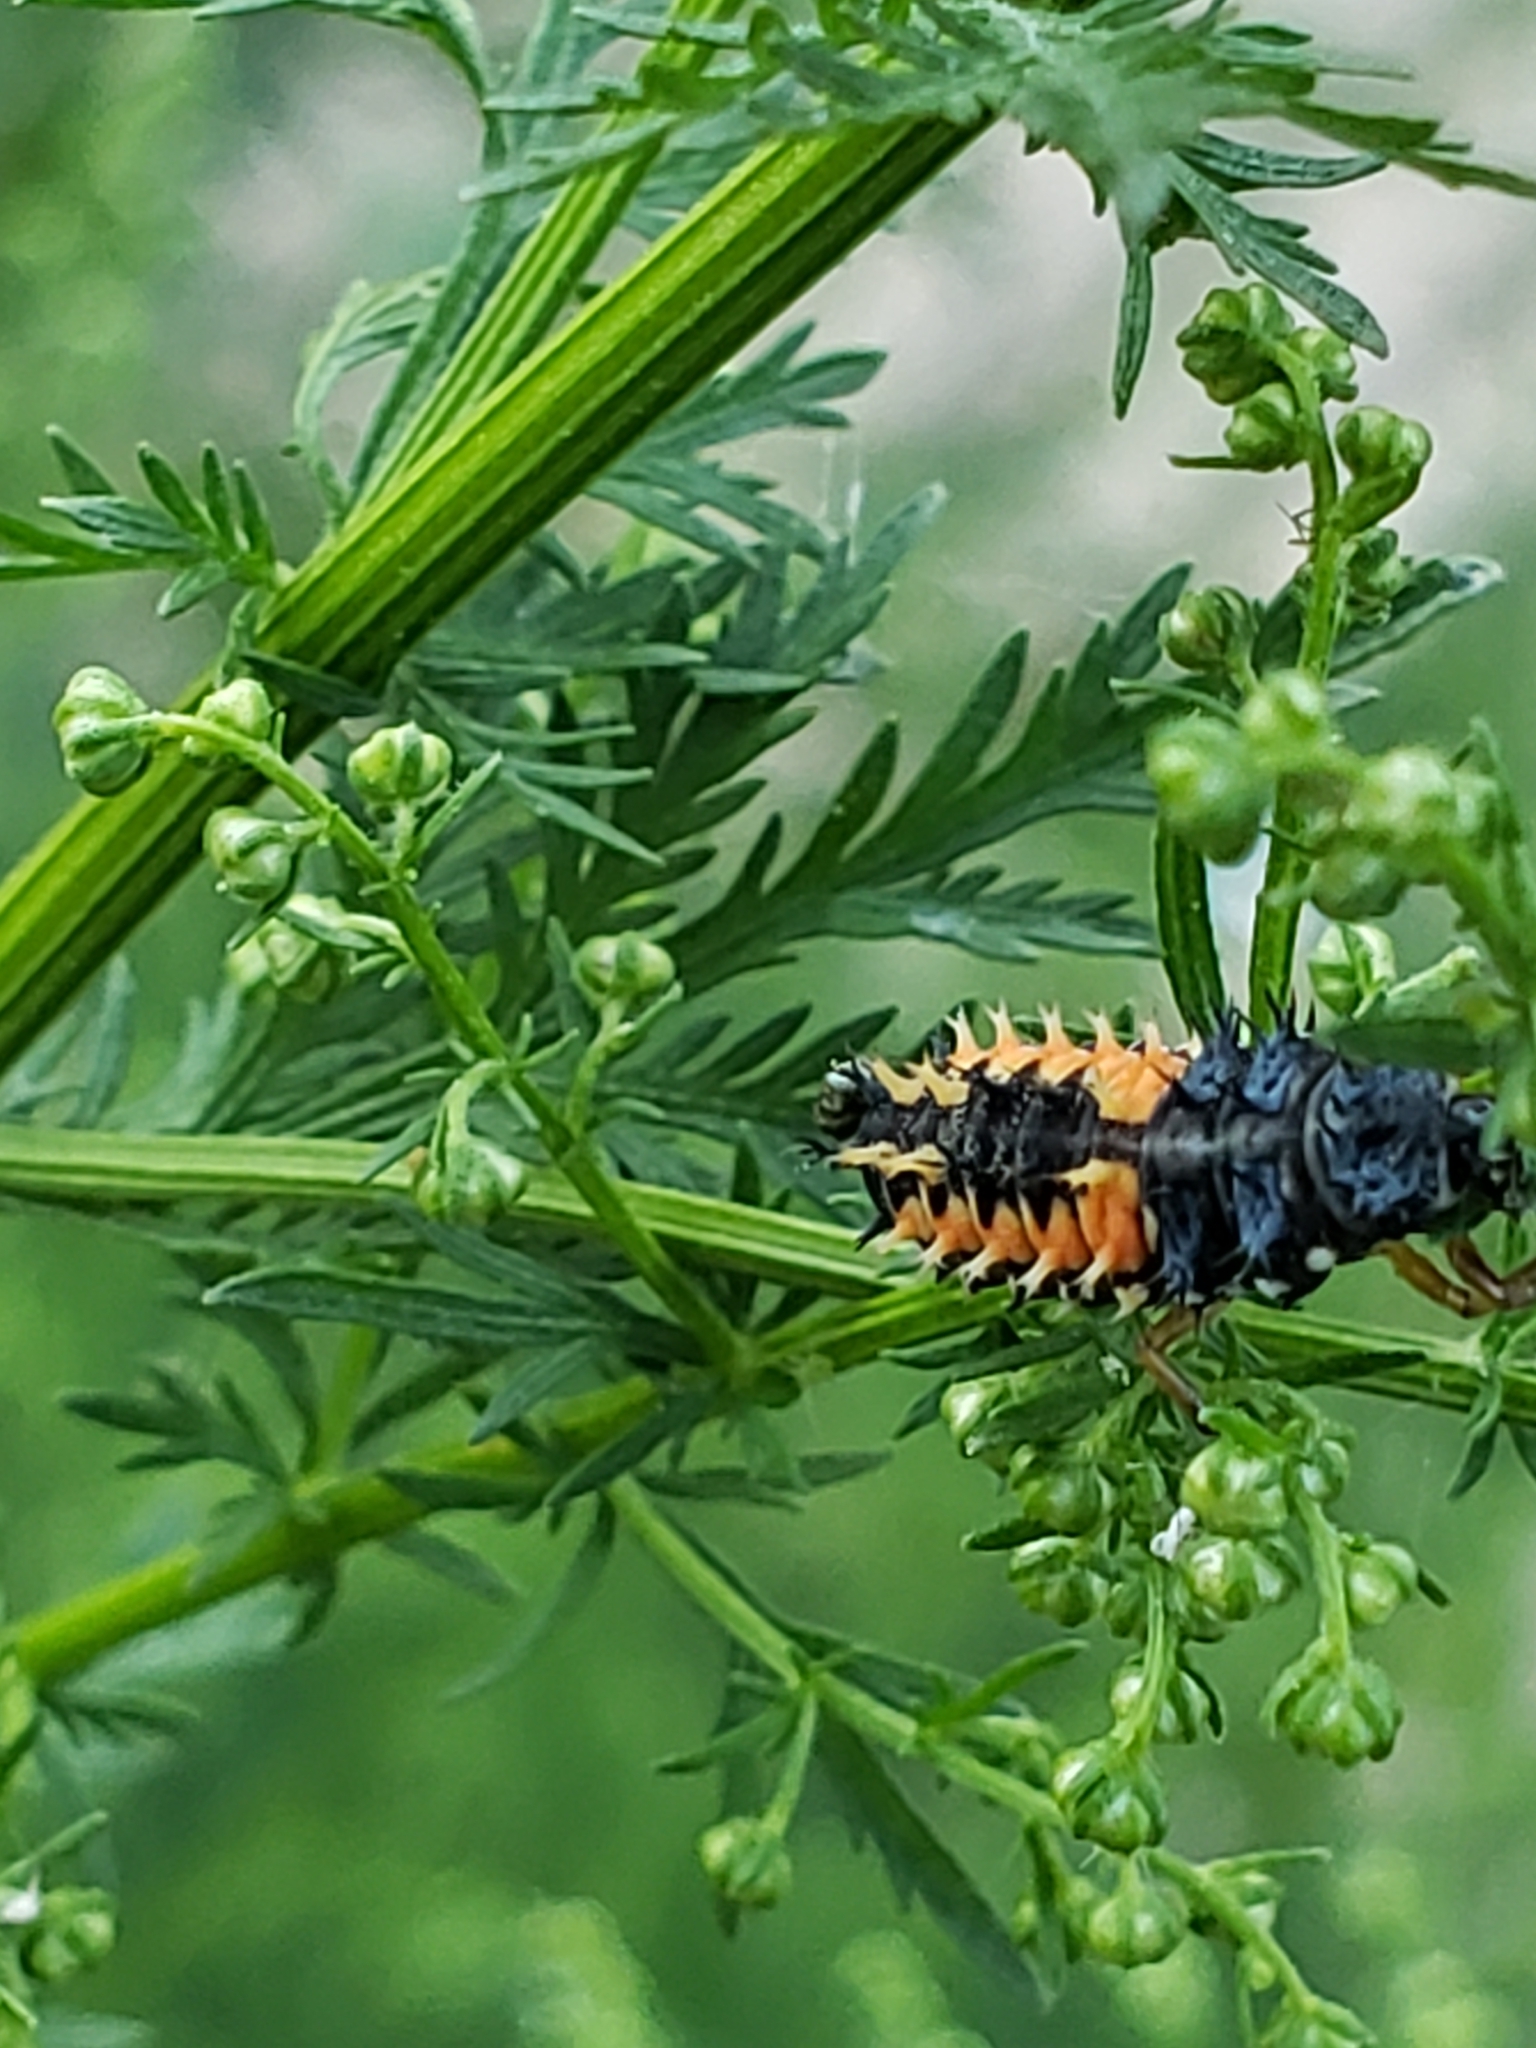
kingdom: Animalia
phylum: Arthropoda
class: Insecta
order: Coleoptera
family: Coccinellidae
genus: Harmonia
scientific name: Harmonia axyridis
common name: Harlequin ladybird
